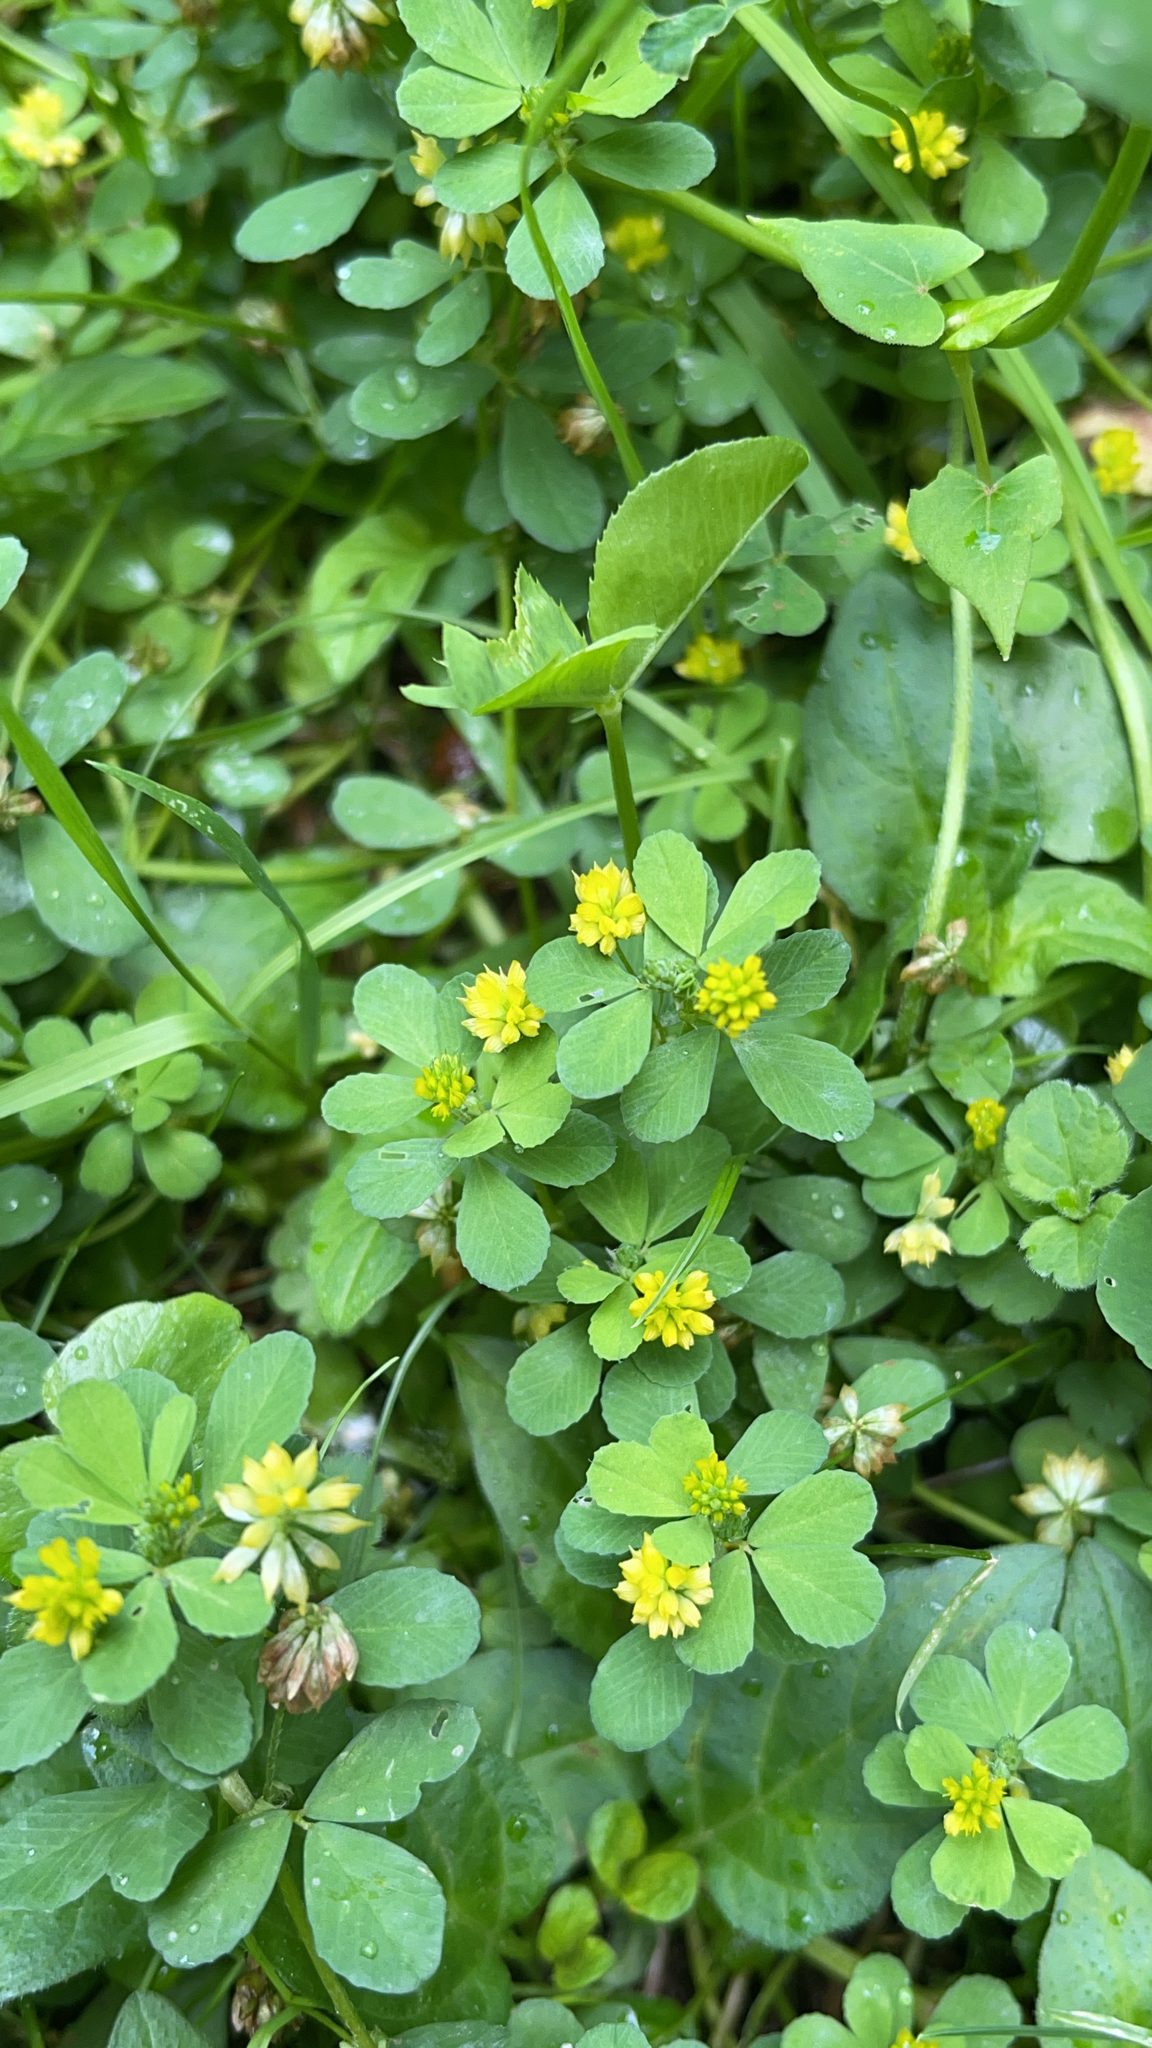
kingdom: Plantae
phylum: Tracheophyta
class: Magnoliopsida
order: Fabales
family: Fabaceae
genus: Trifolium
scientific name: Trifolium dubium
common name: Suckling clover
